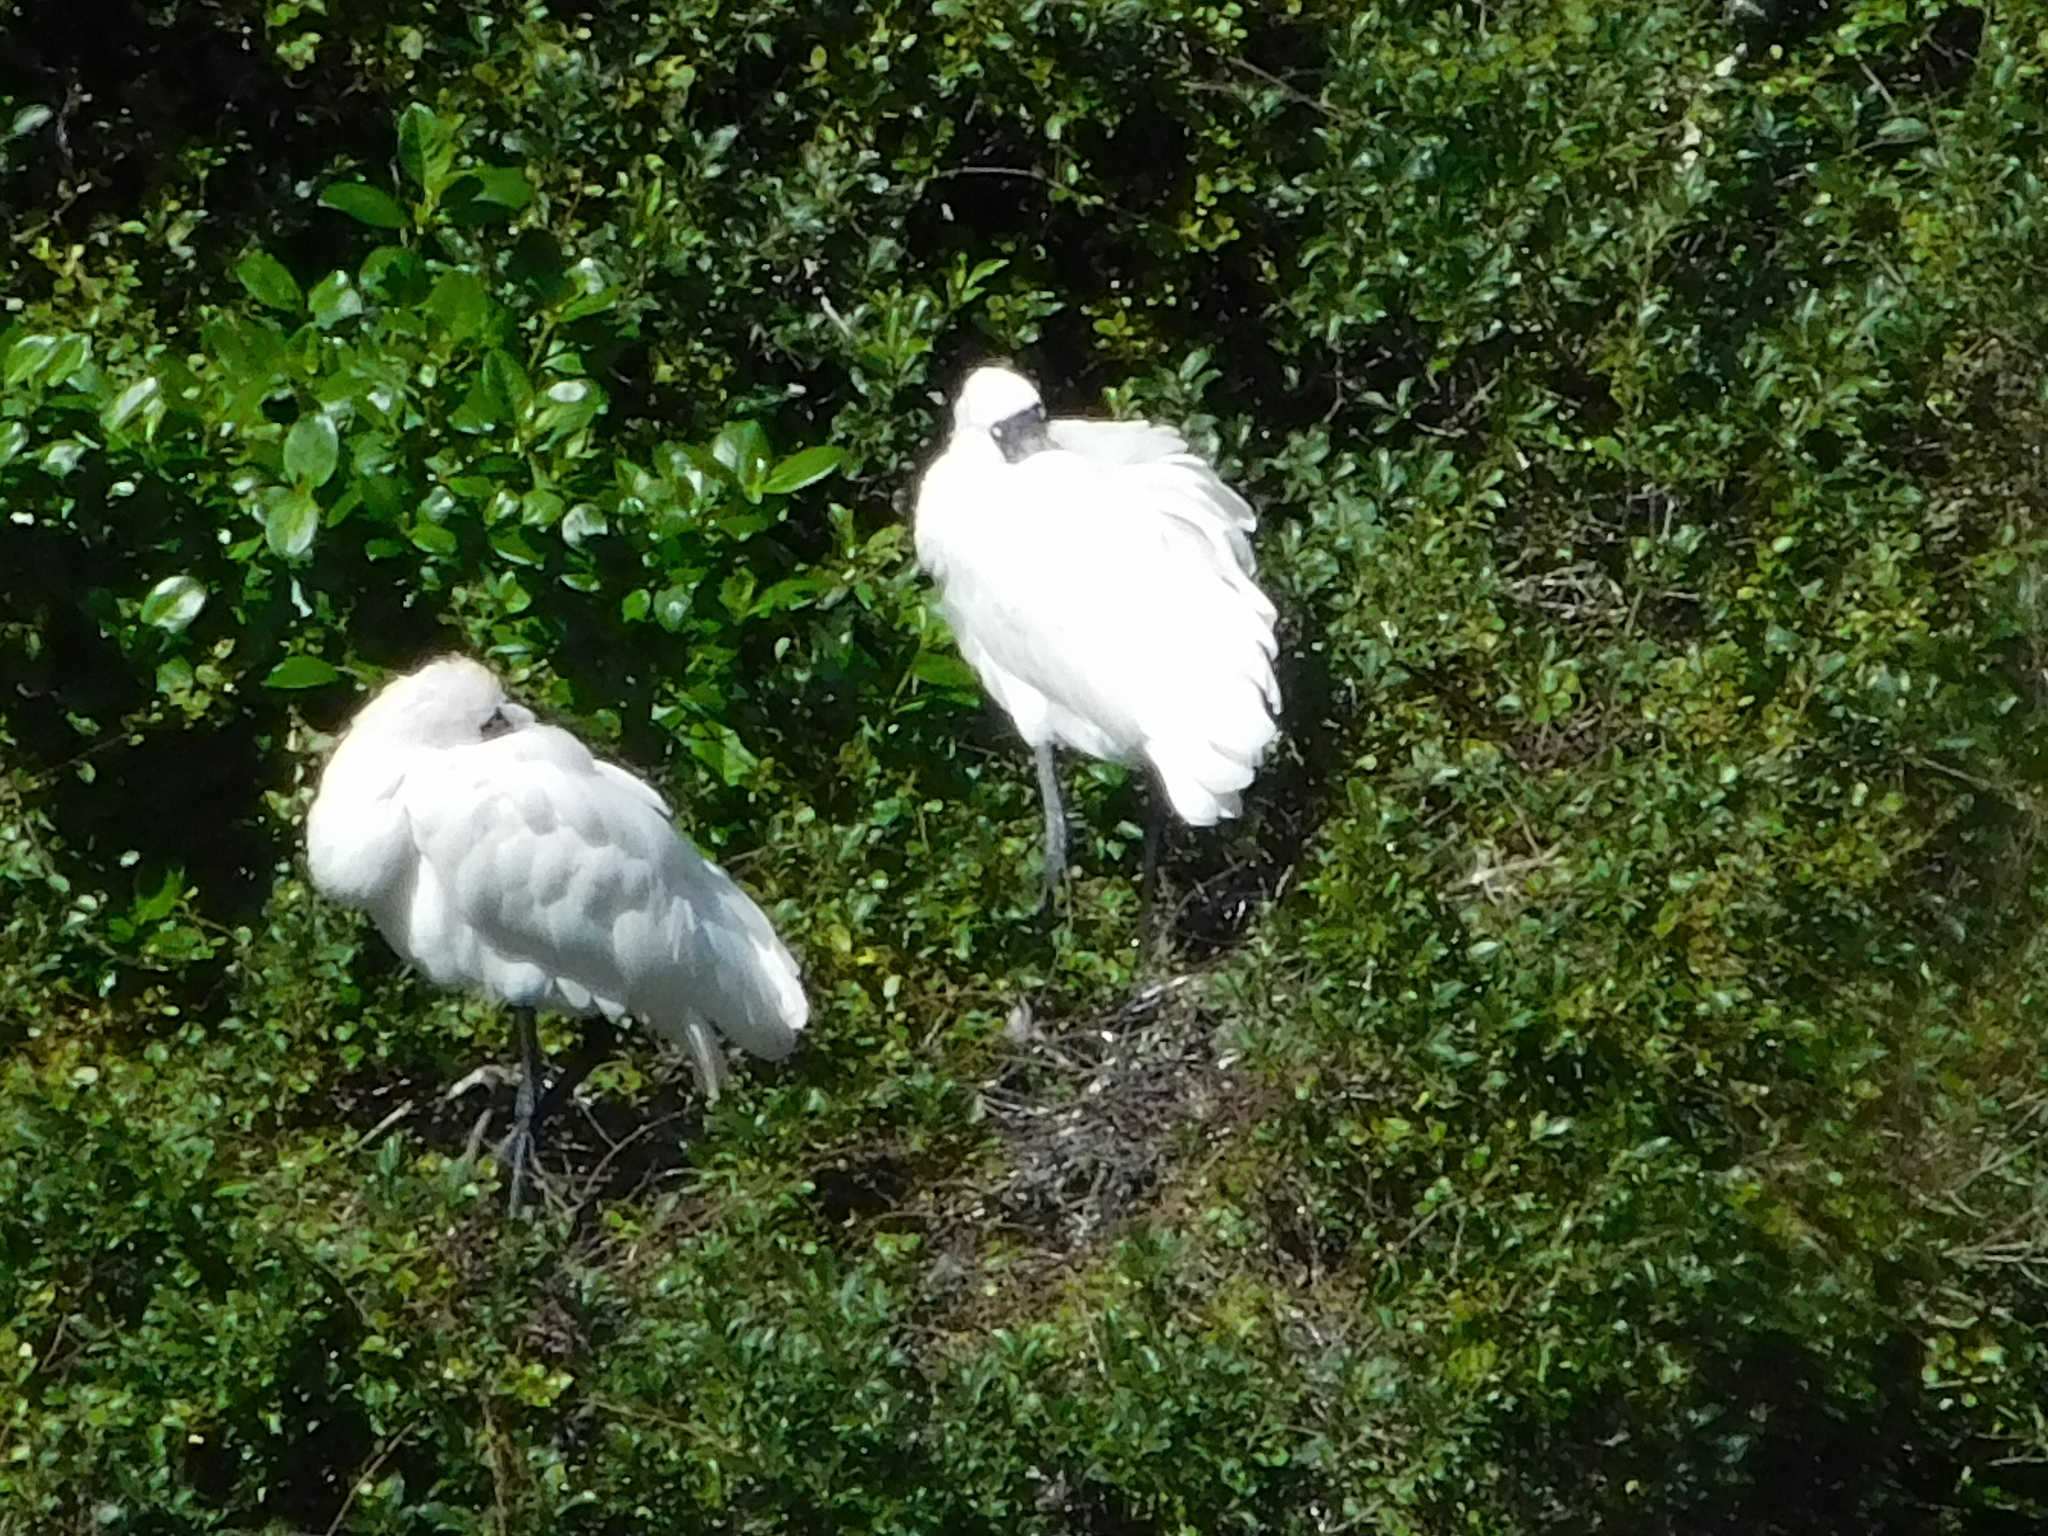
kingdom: Animalia
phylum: Chordata
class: Aves
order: Pelecaniformes
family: Threskiornithidae
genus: Platalea
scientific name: Platalea regia
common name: Royal spoonbill
